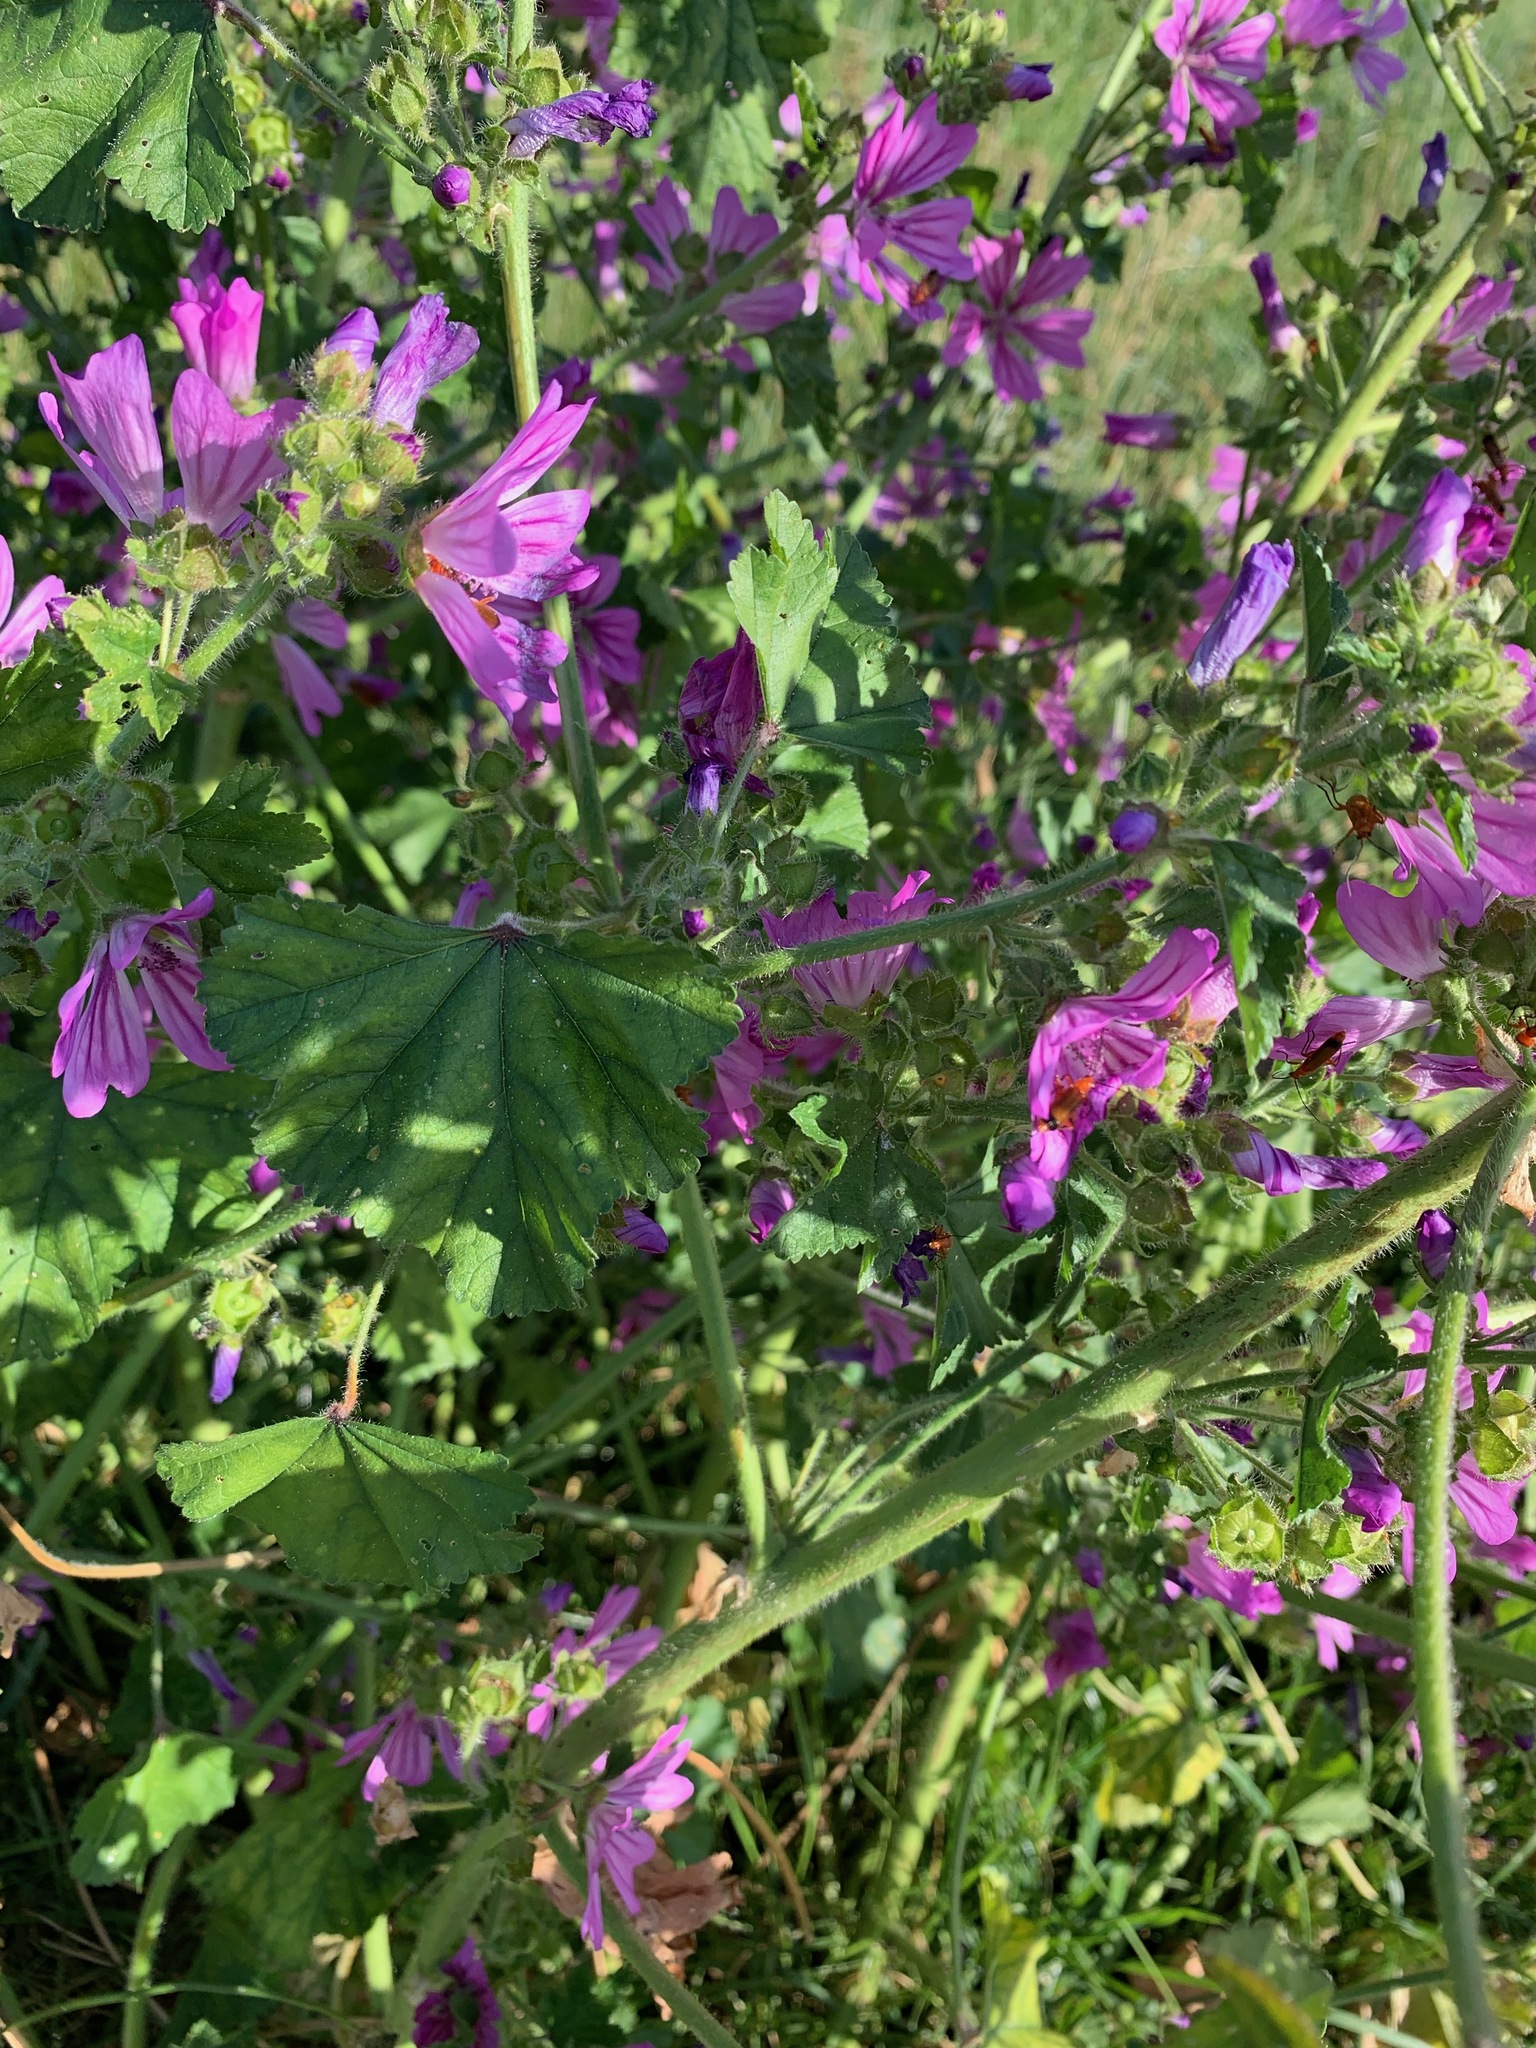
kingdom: Plantae
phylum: Tracheophyta
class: Magnoliopsida
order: Malvales
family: Malvaceae
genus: Malva
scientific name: Malva sylvestris
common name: Common mallow
